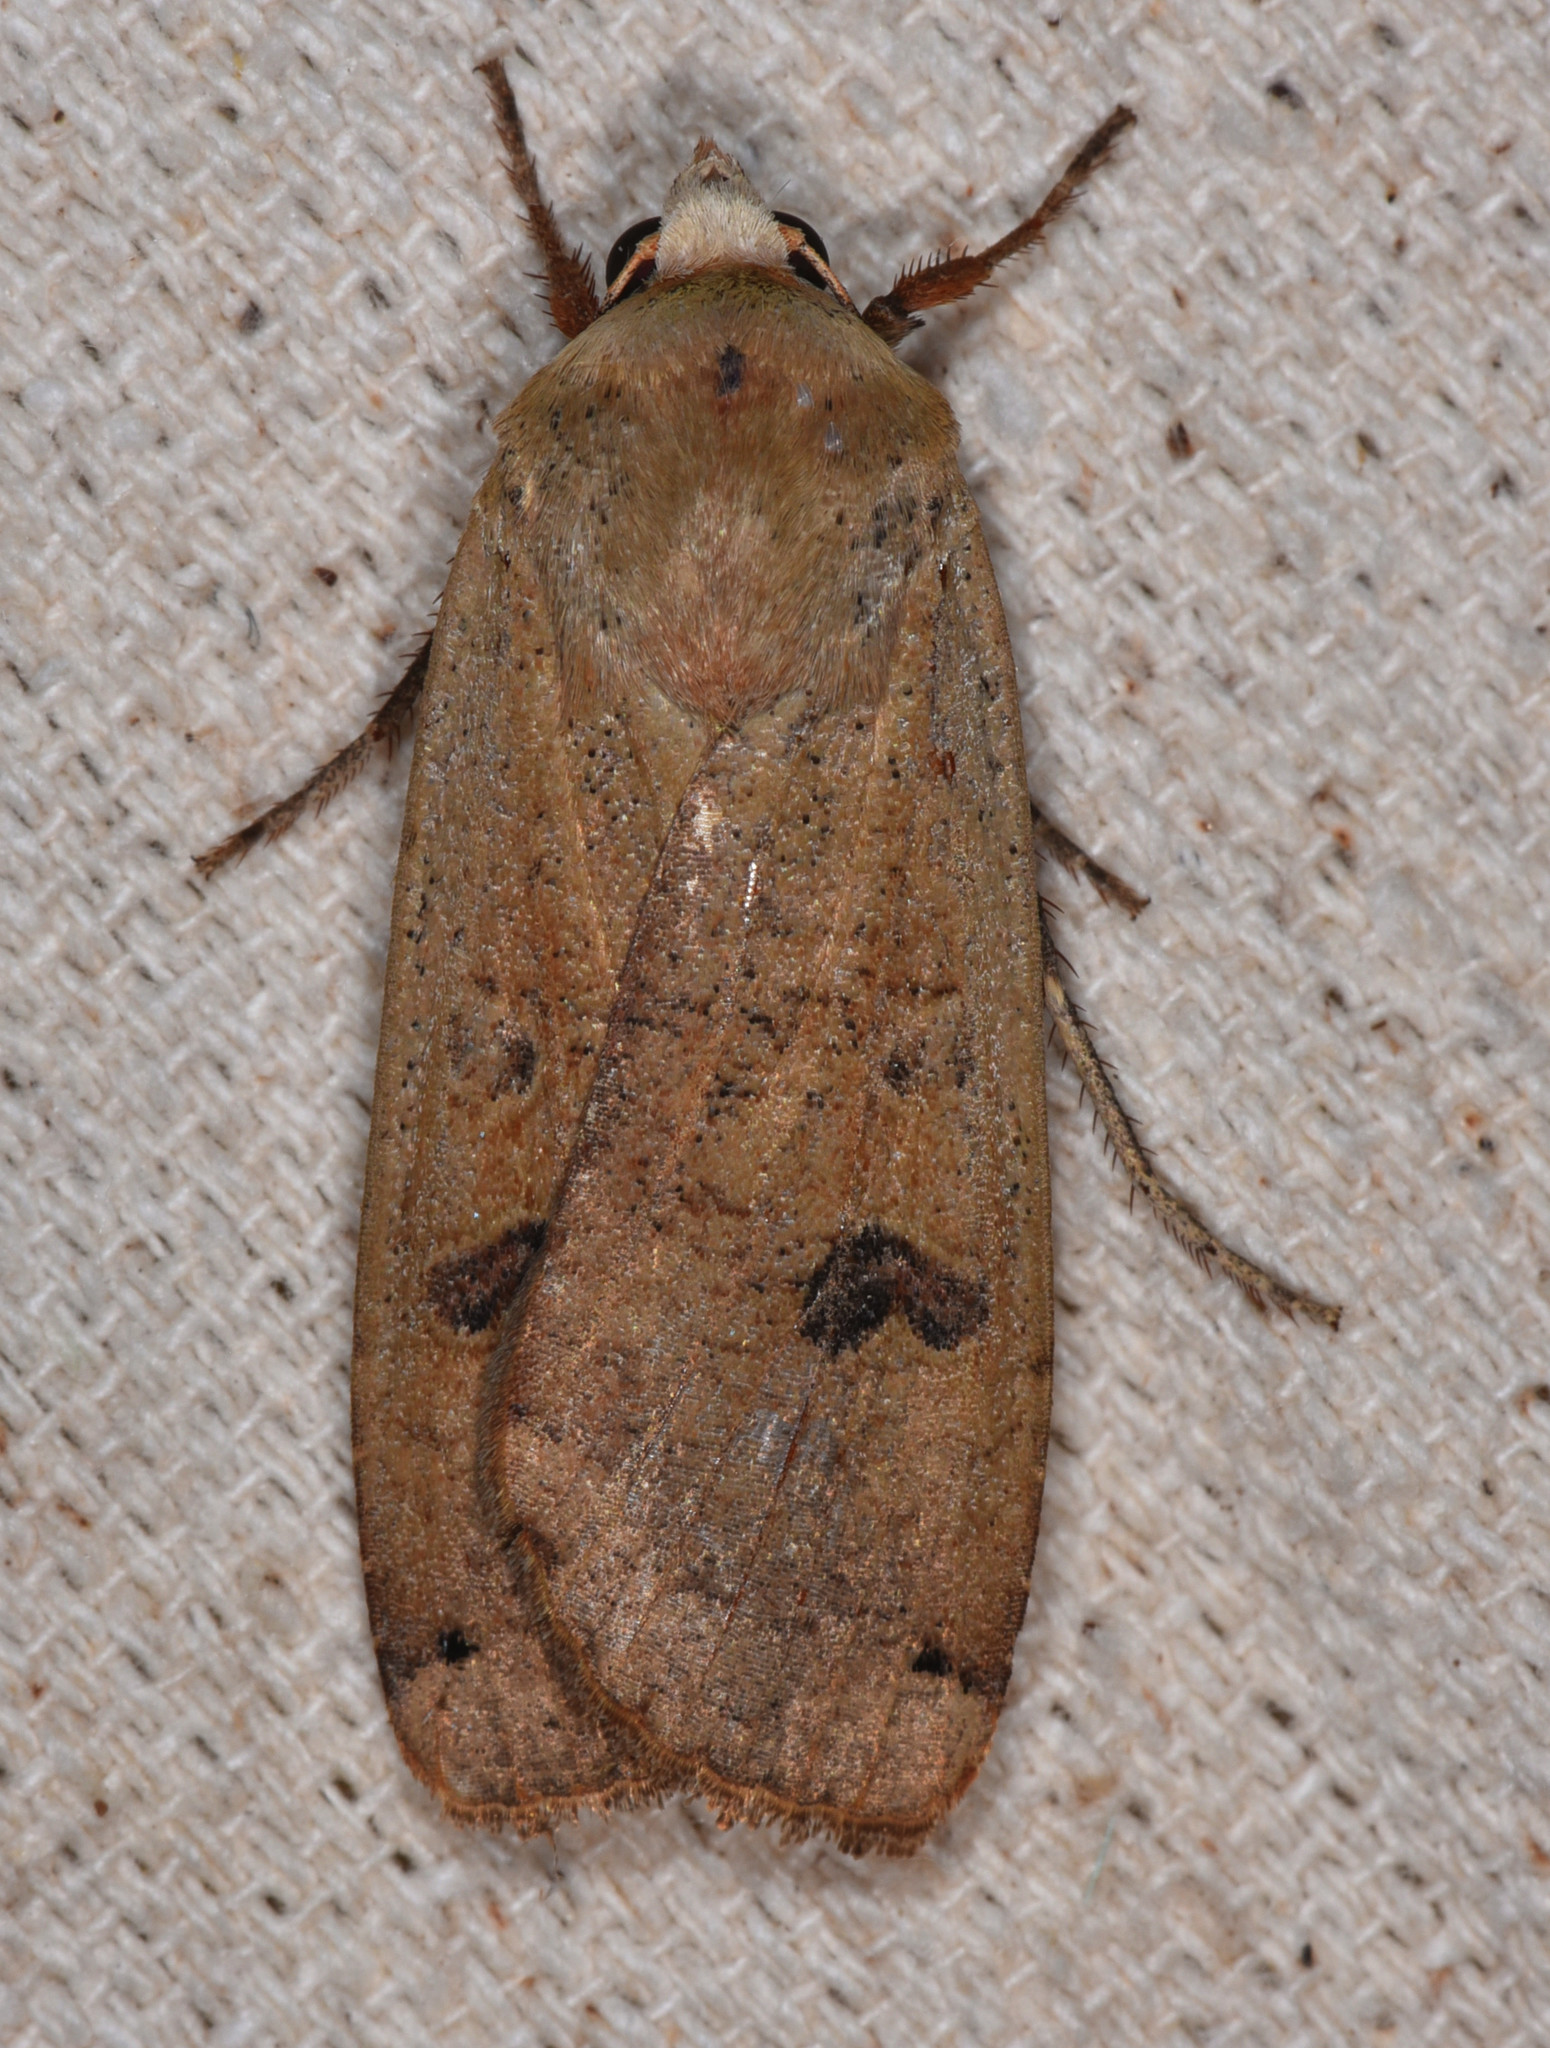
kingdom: Animalia
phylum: Arthropoda
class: Insecta
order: Lepidoptera
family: Noctuidae
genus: Noctua
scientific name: Noctua pronuba
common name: Large yellow underwing
